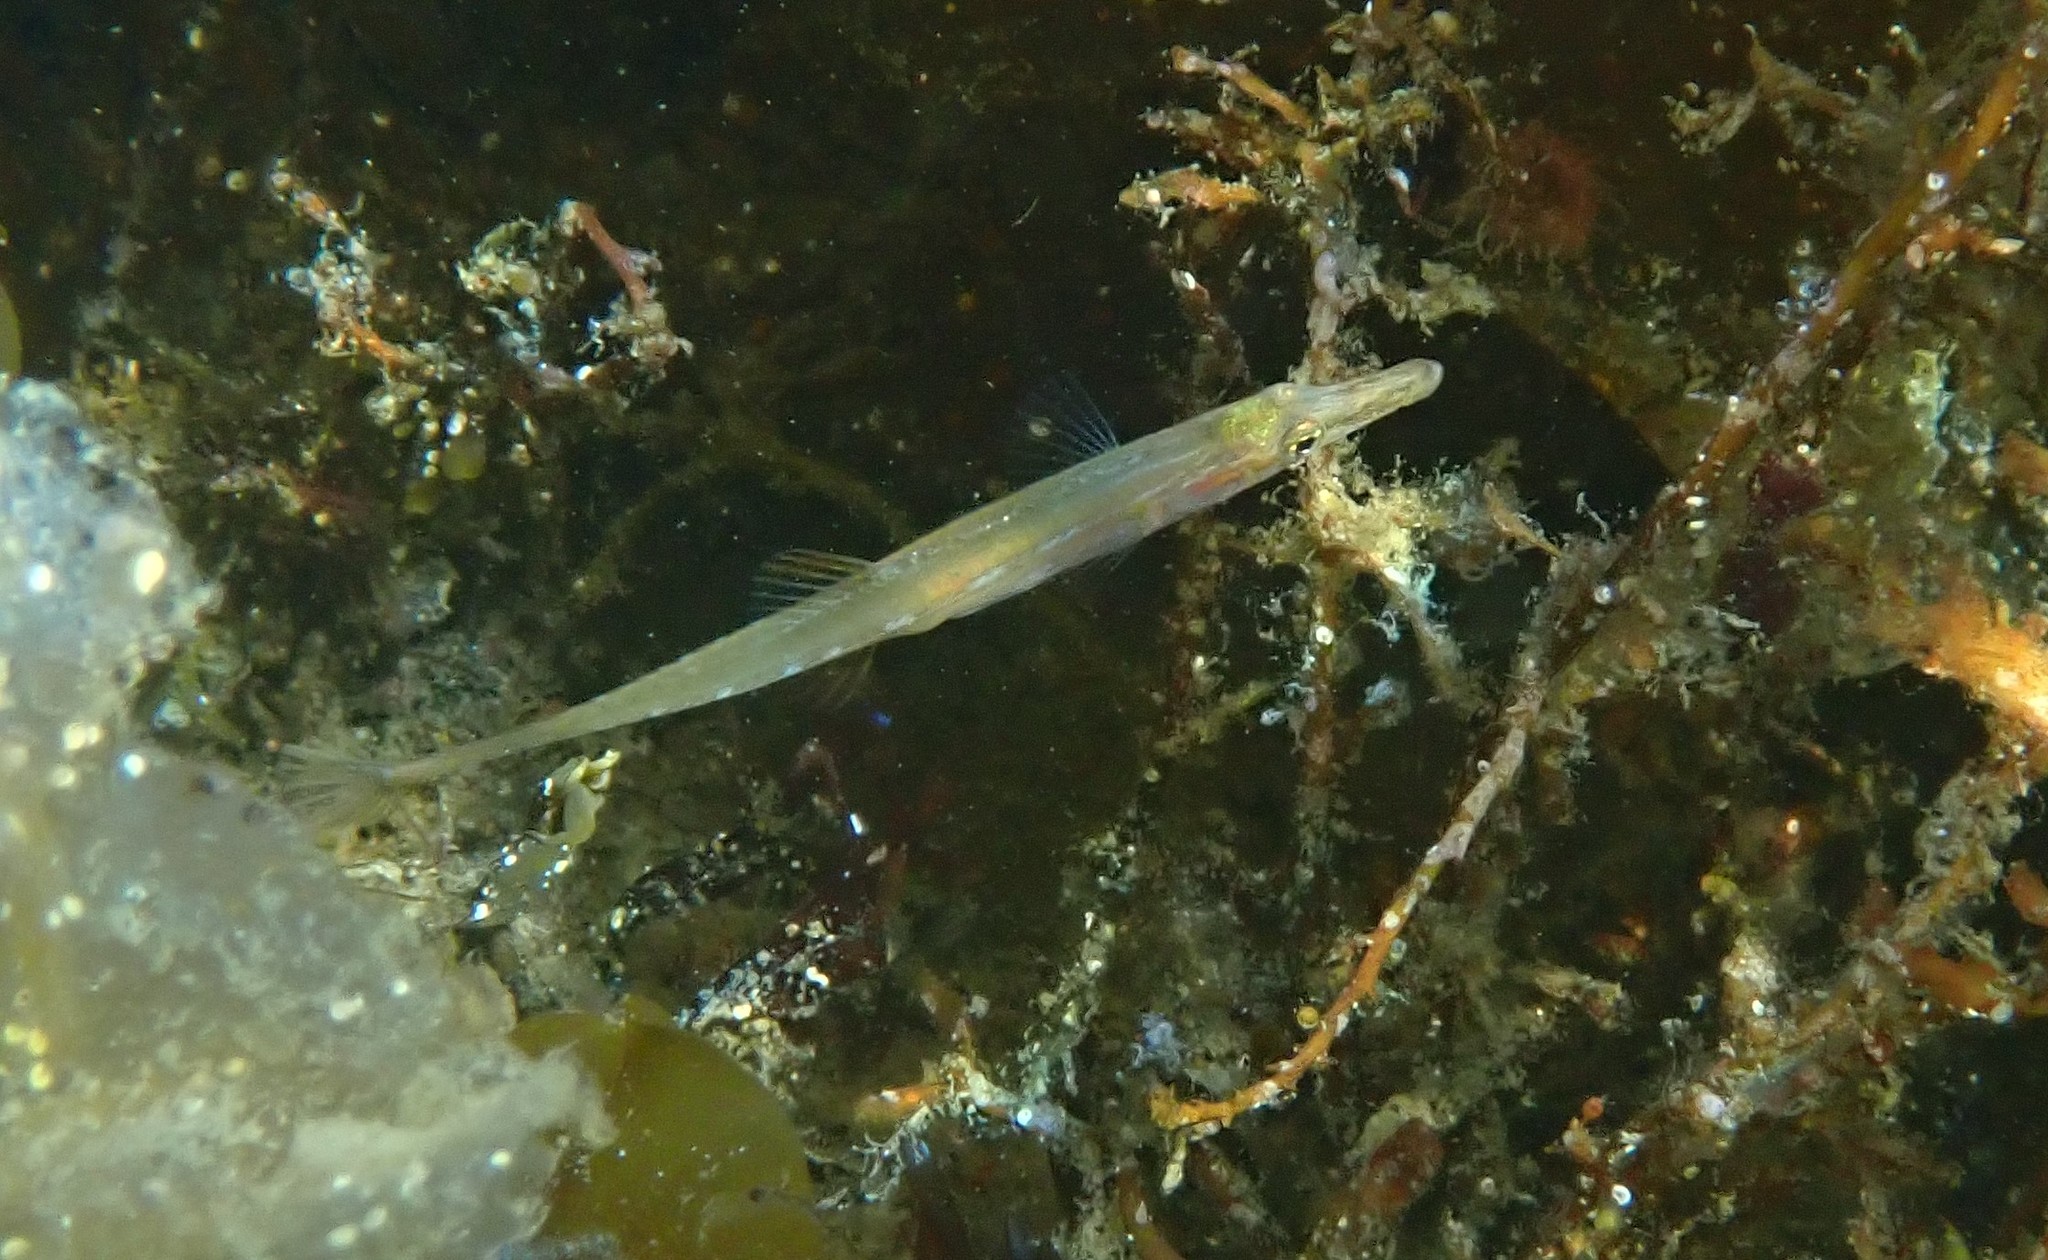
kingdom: Animalia
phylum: Chordata
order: Gasterosteiformes
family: Gasterosteidae
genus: Spinachia
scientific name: Spinachia spinachia
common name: Fifteen-spined stickleback
